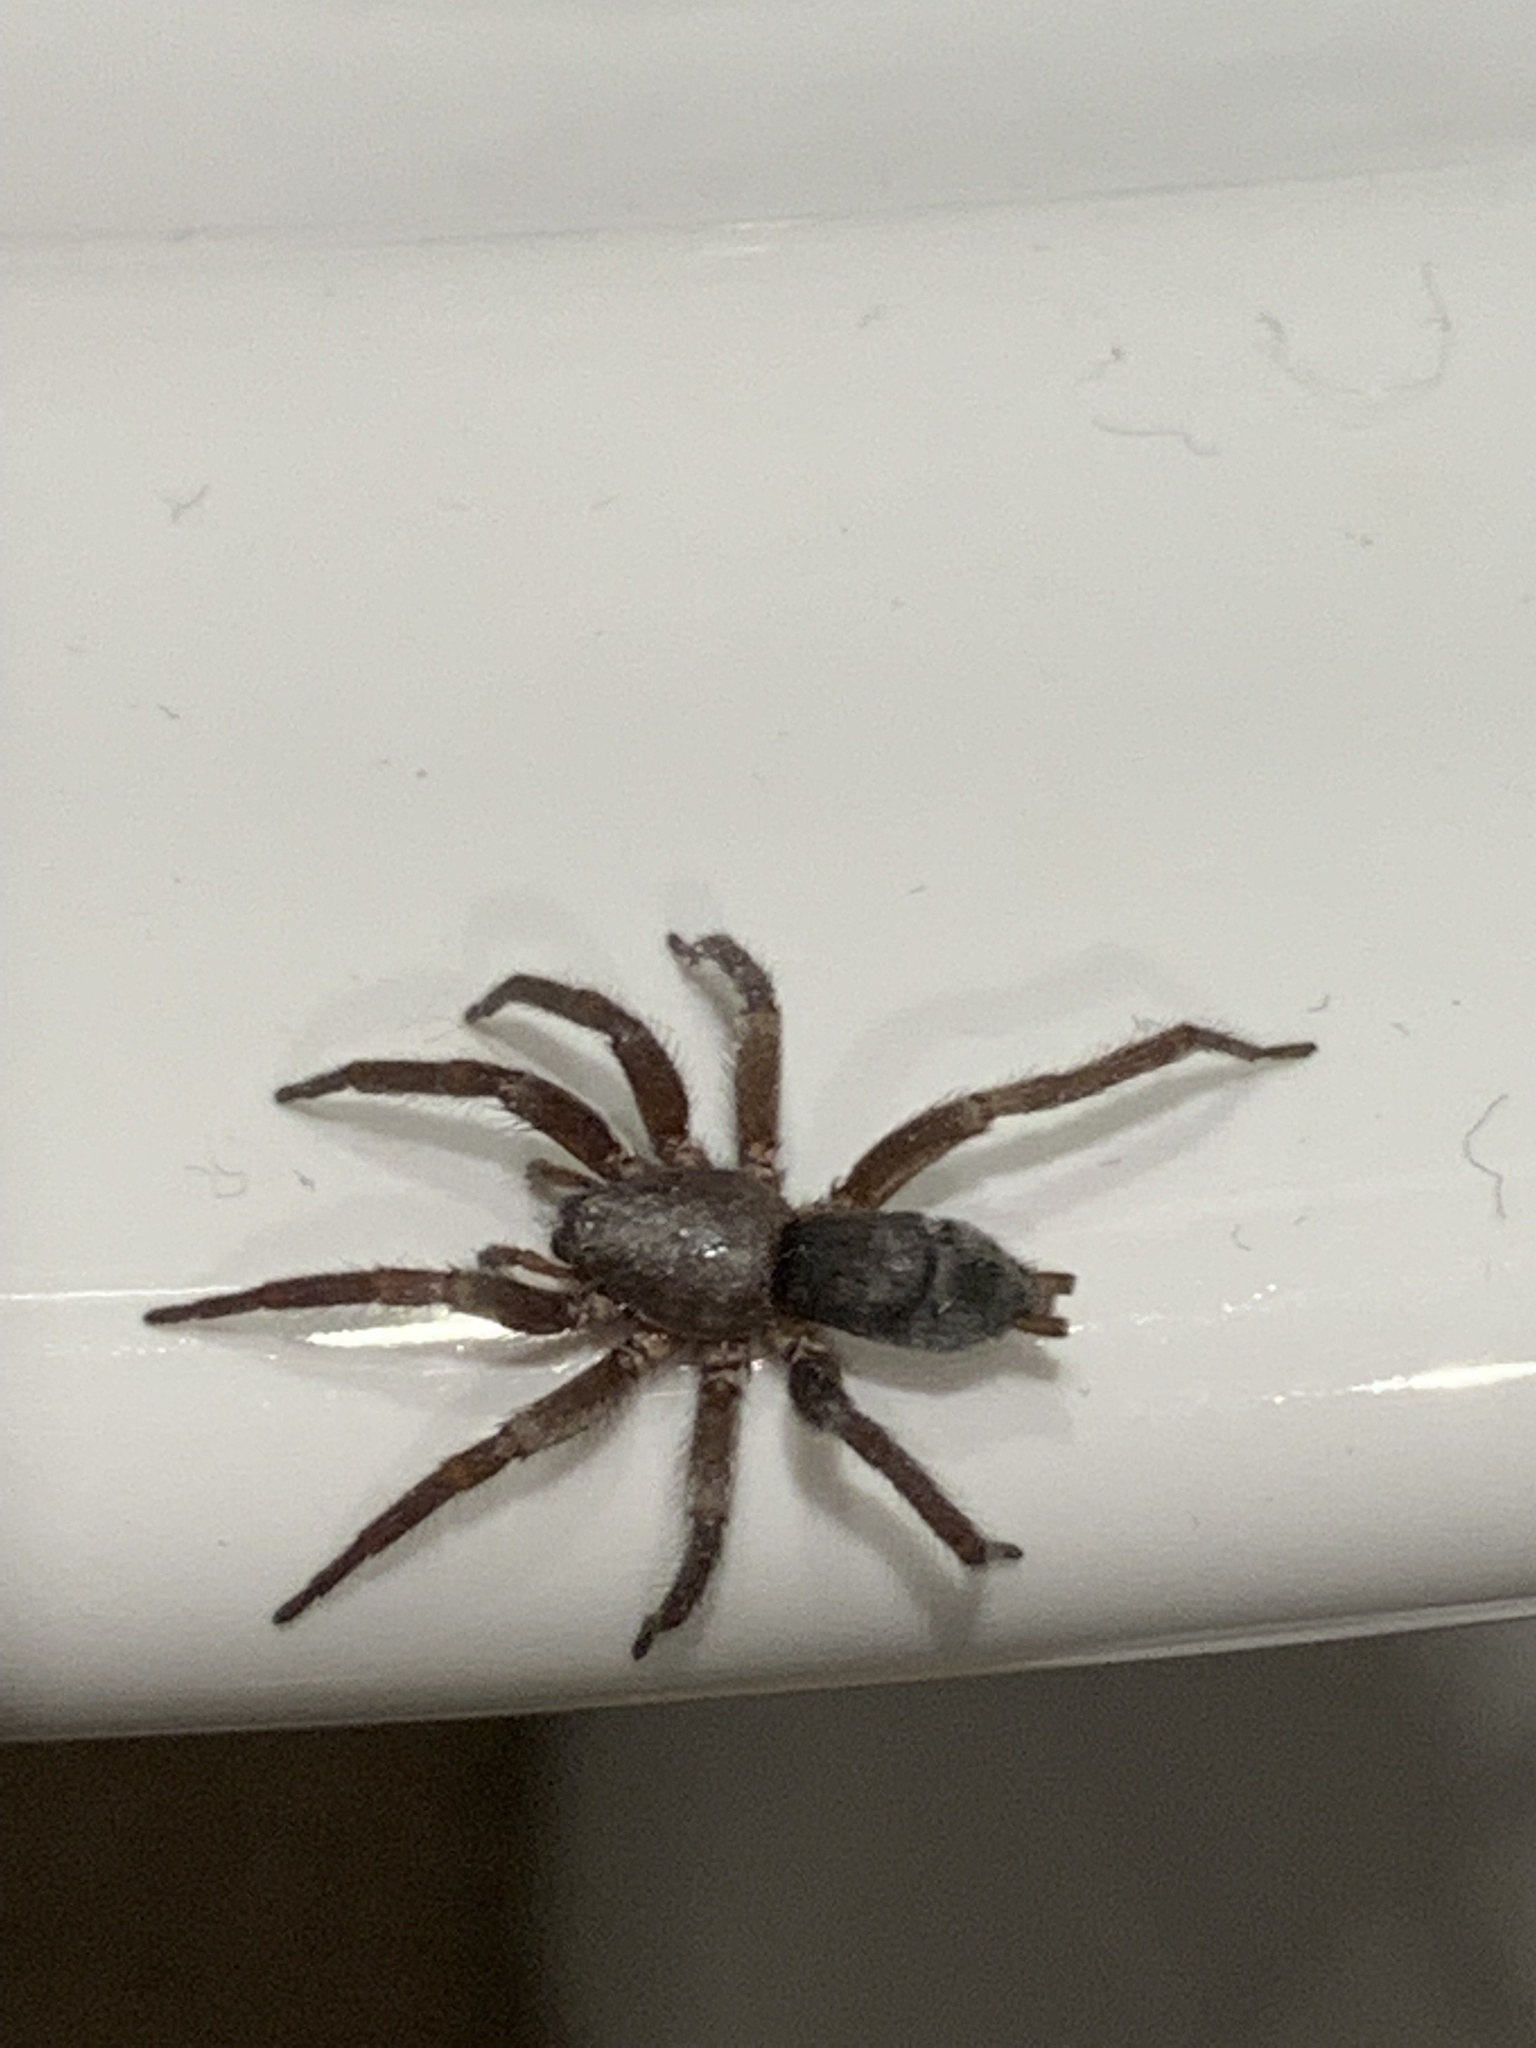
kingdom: Animalia
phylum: Arthropoda
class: Arachnida
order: Araneae
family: Gnaphosidae
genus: Scotophaeus
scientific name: Scotophaeus blackwalli
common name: Mouse spider
